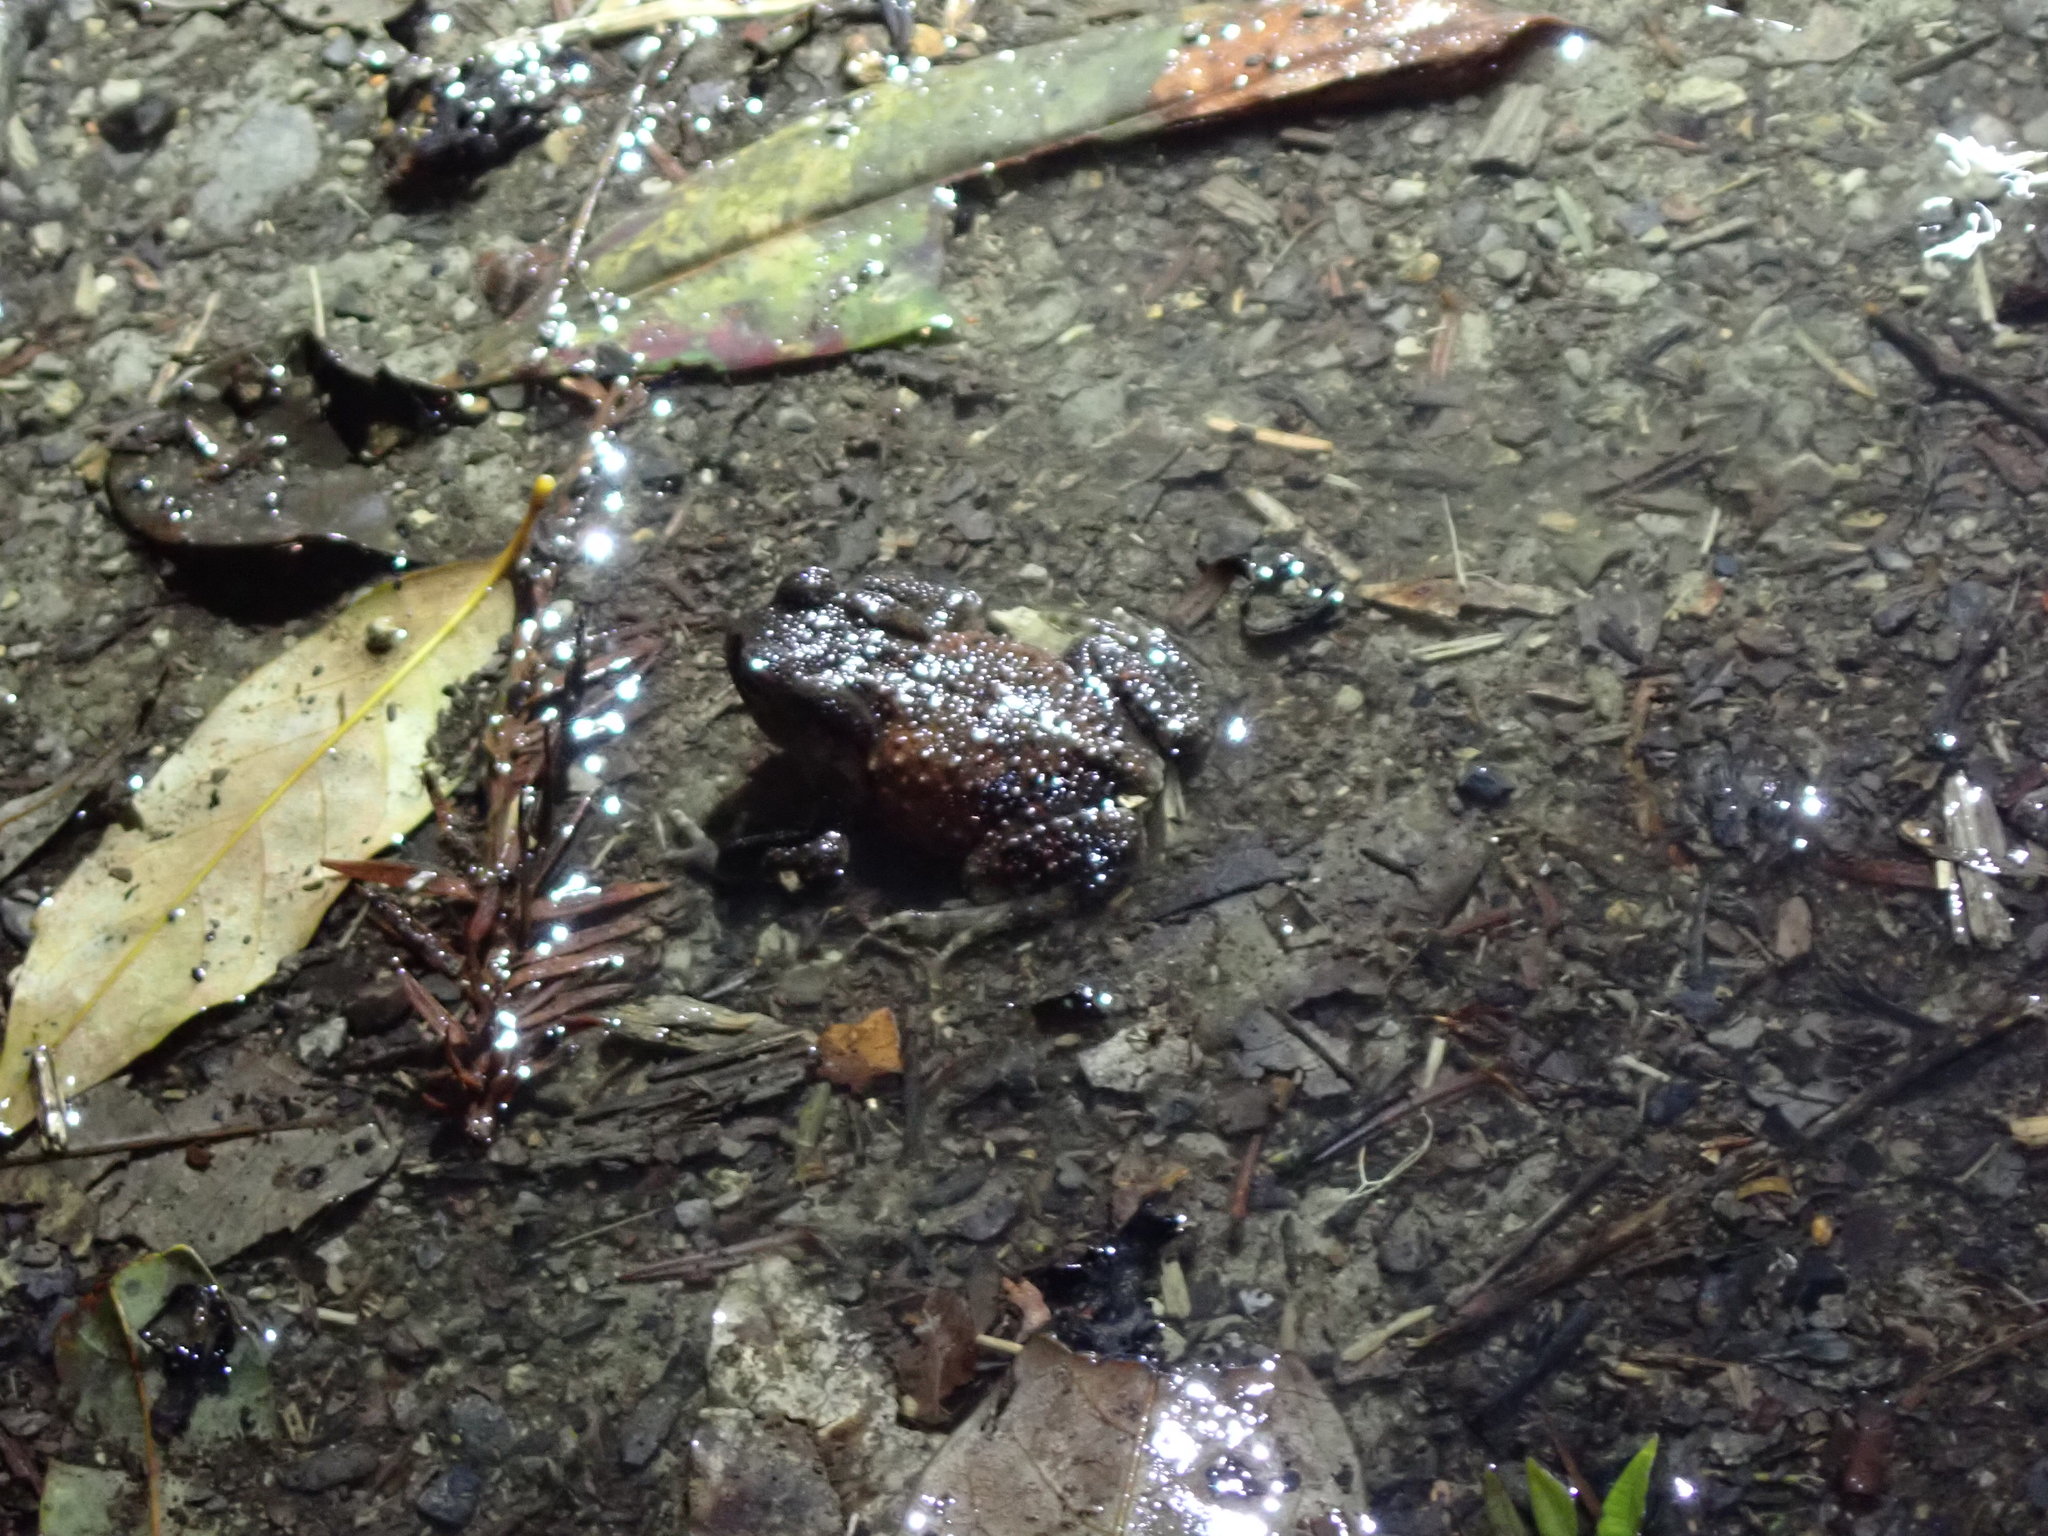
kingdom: Animalia
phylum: Chordata
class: Amphibia
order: Anura
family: Bufonidae
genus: Bufo
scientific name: Bufo bankorensis
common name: Bankor toad
